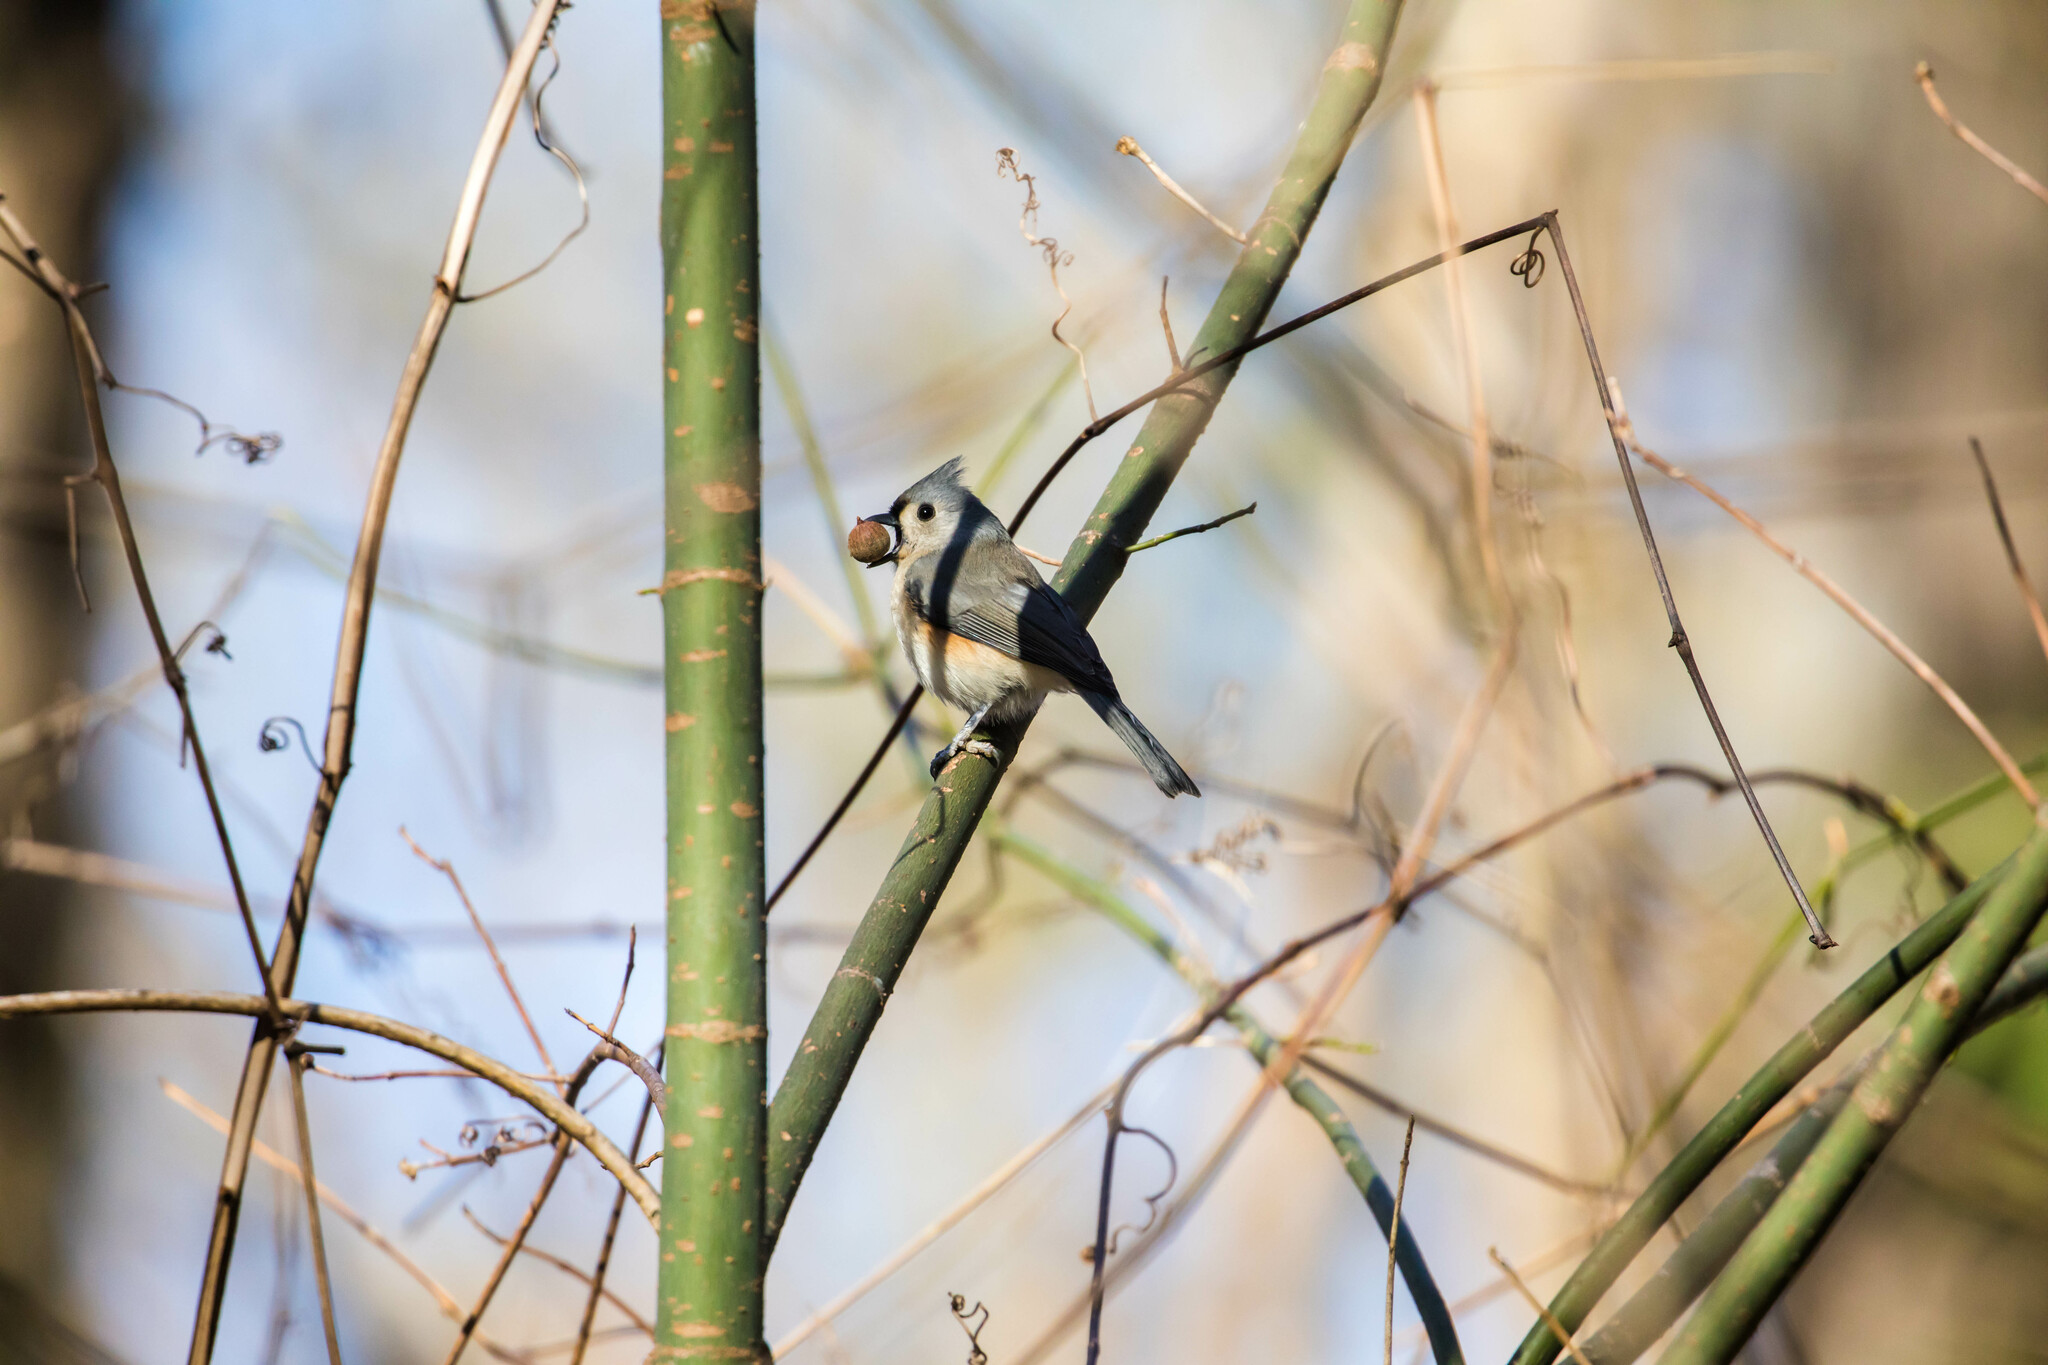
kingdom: Animalia
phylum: Chordata
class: Aves
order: Passeriformes
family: Paridae
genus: Baeolophus
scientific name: Baeolophus bicolor
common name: Tufted titmouse
